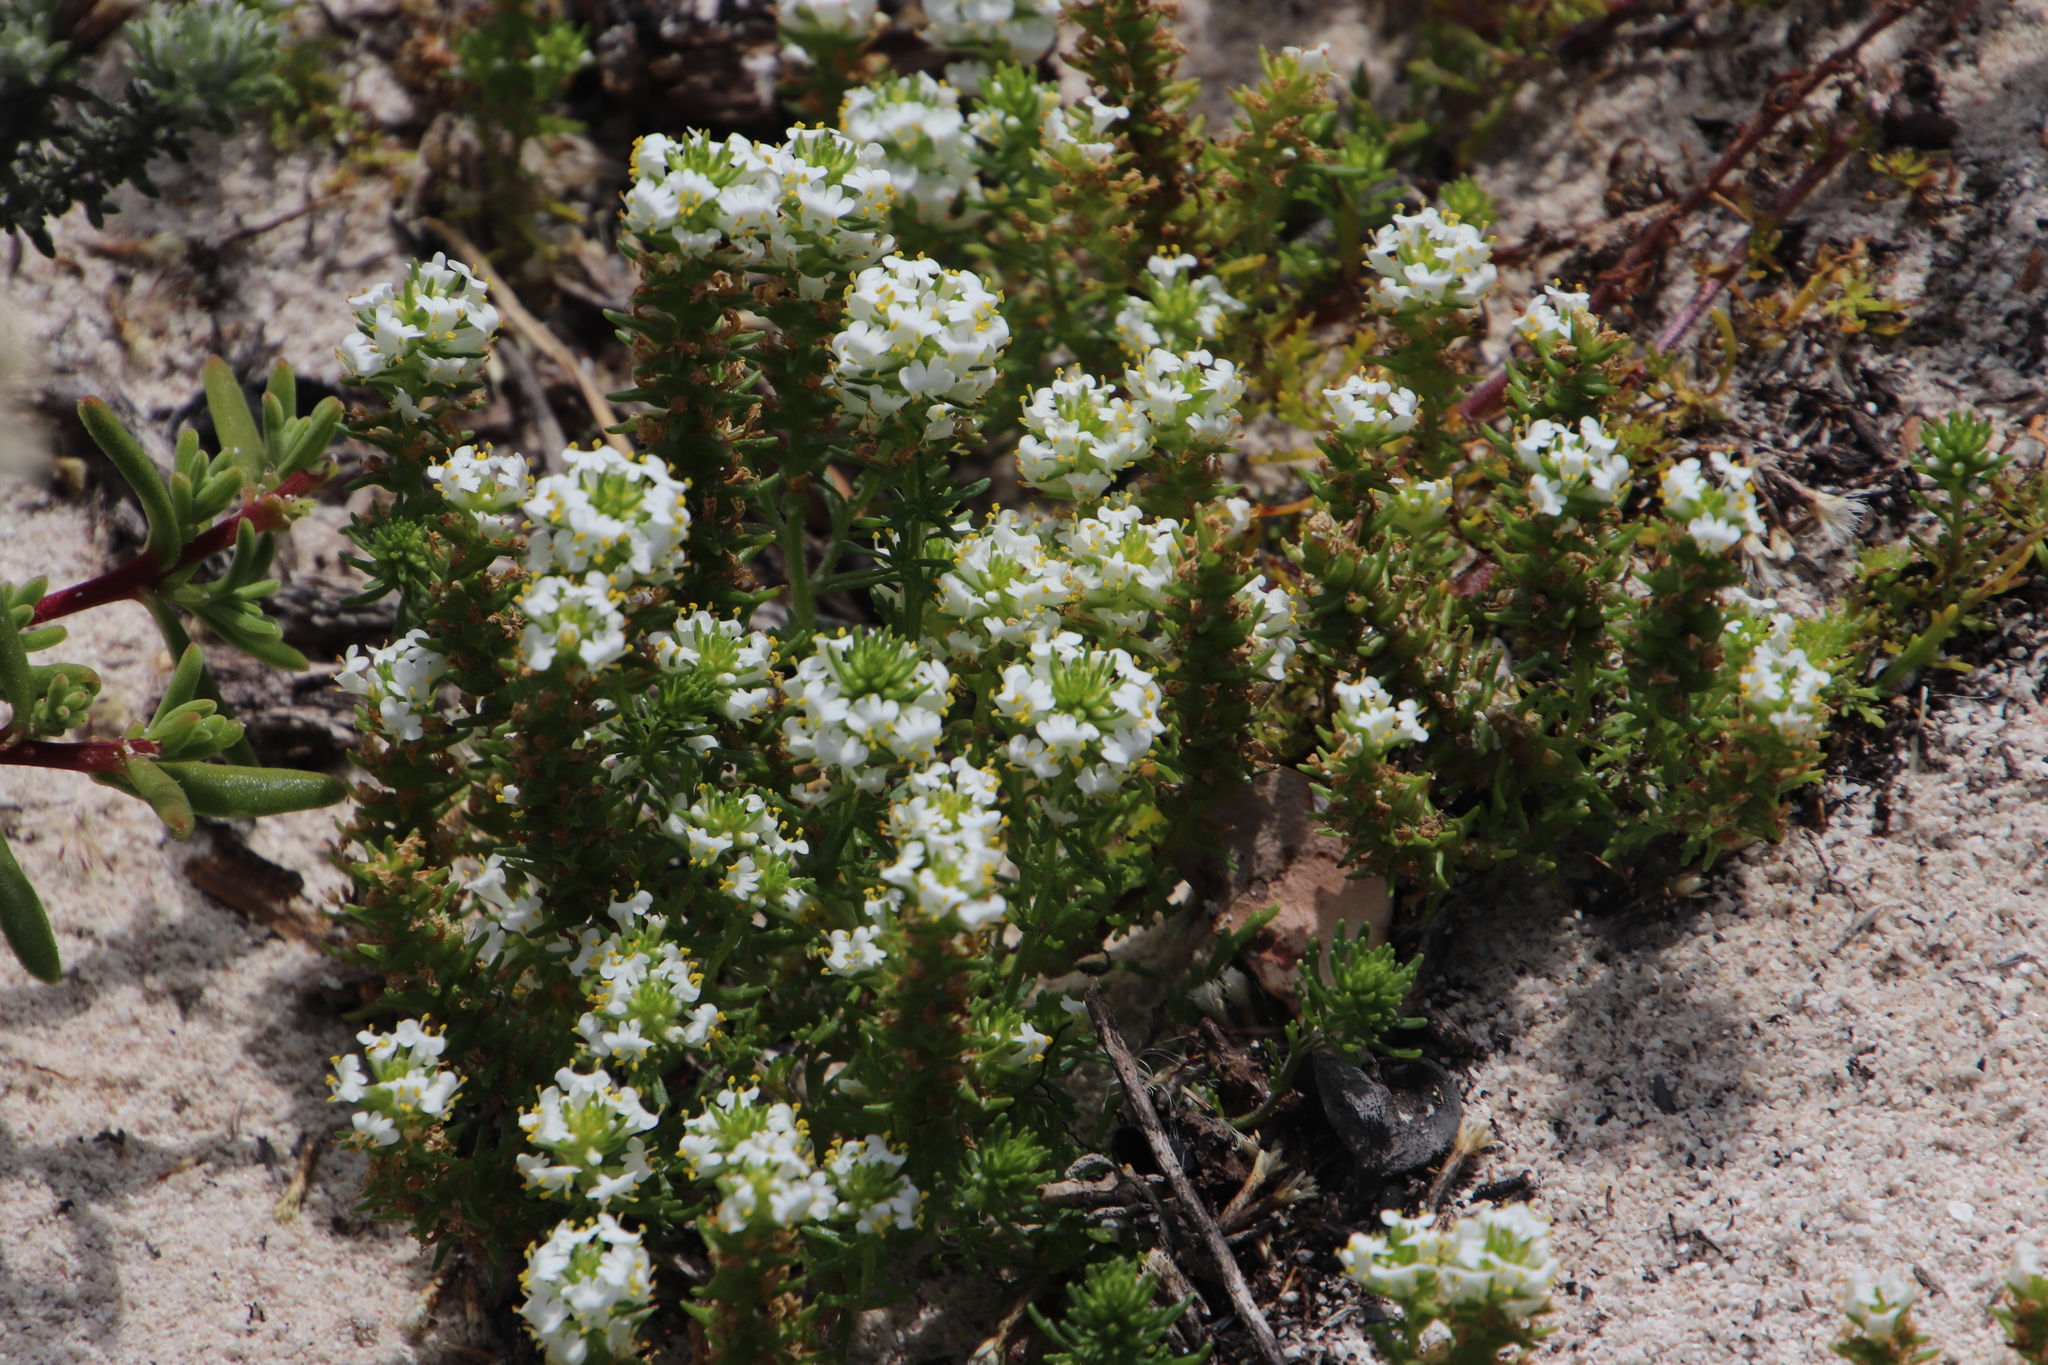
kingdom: Plantae
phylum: Tracheophyta
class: Magnoliopsida
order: Lamiales
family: Scrophulariaceae
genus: Dischisma
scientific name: Dischisma capitatum
